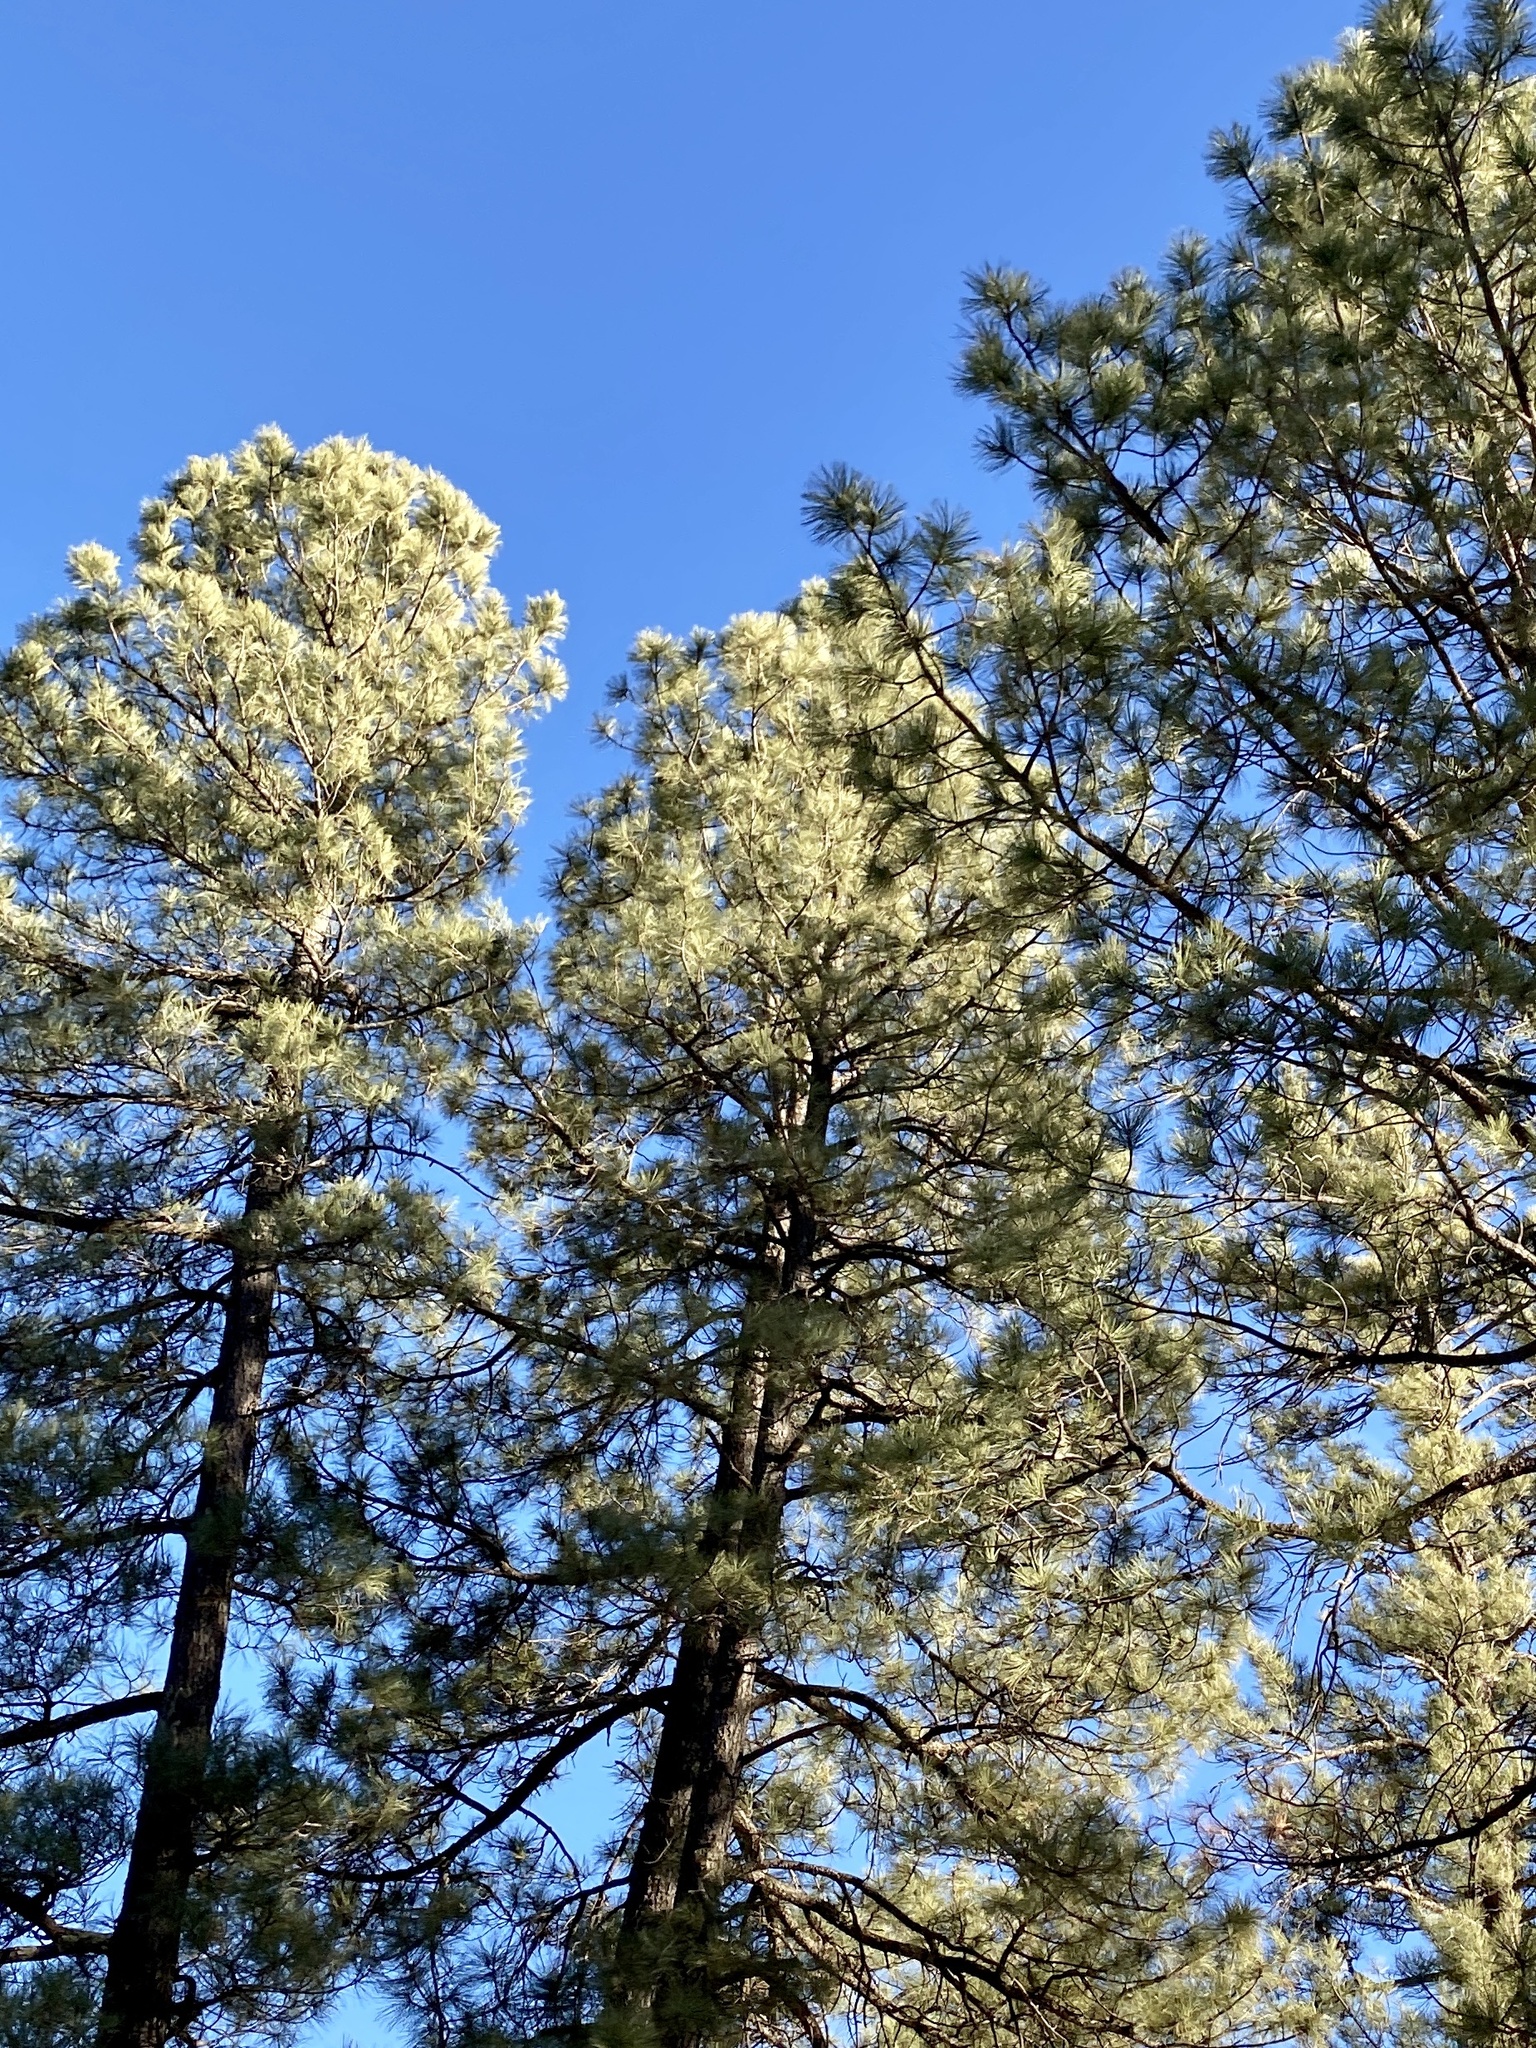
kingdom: Plantae
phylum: Tracheophyta
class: Pinopsida
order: Pinales
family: Pinaceae
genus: Pinus
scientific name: Pinus ponderosa
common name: Western yellow-pine
